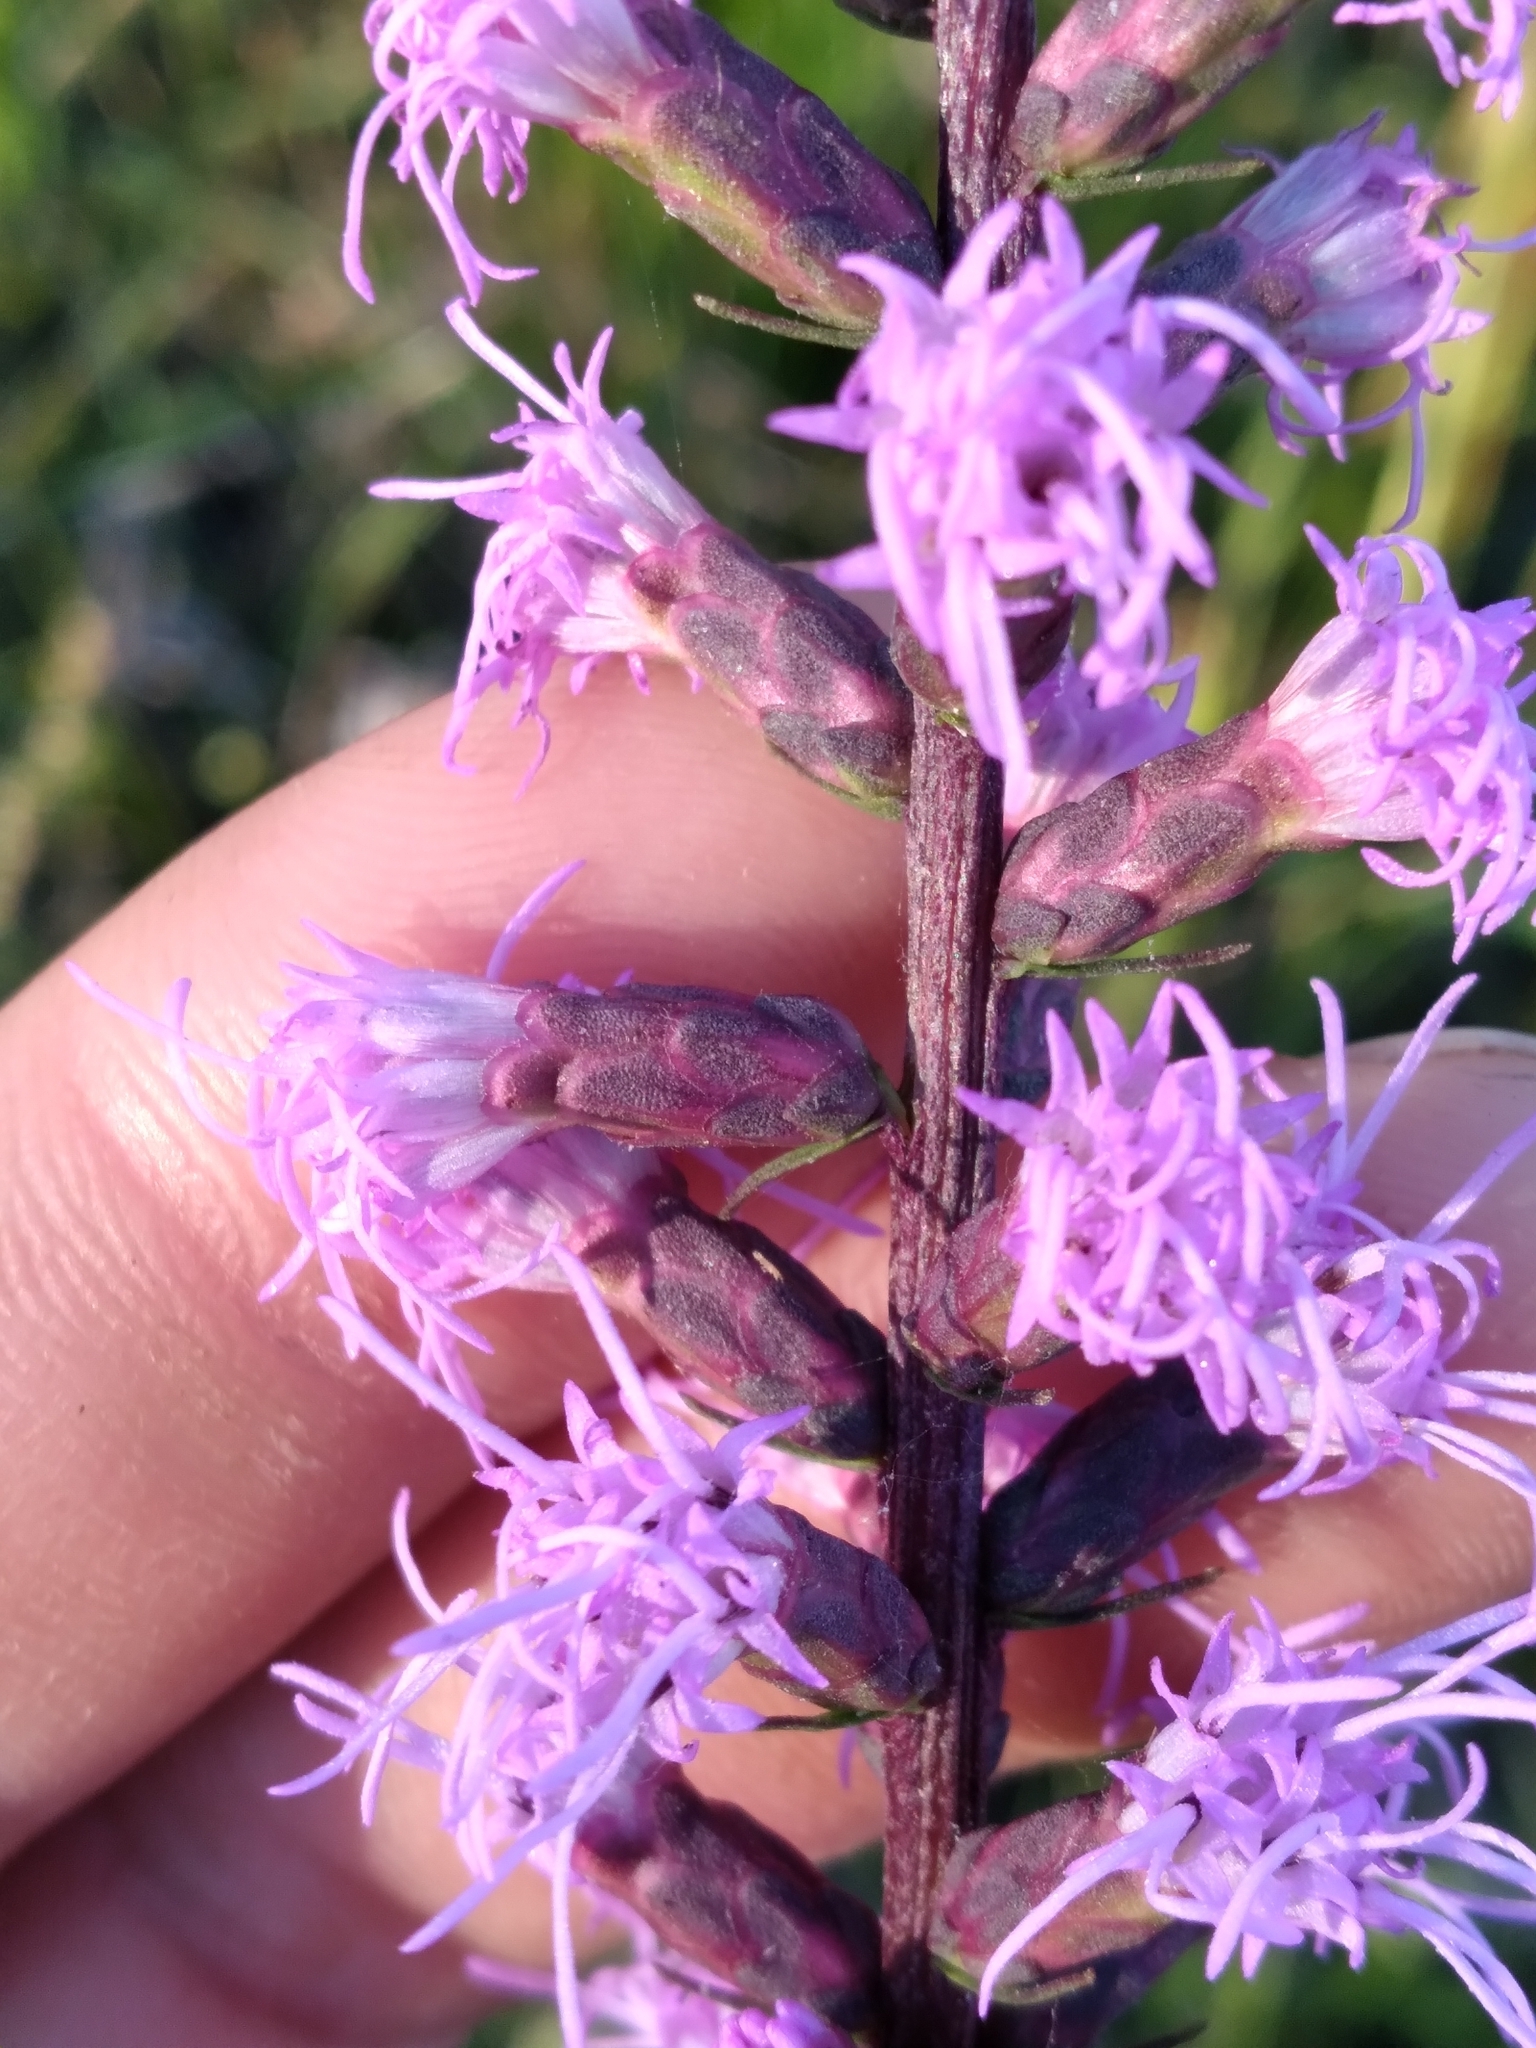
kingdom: Plantae
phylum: Tracheophyta
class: Magnoliopsida
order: Asterales
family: Asteraceae
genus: Liatris
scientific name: Liatris spicata
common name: Florist gayfeather
